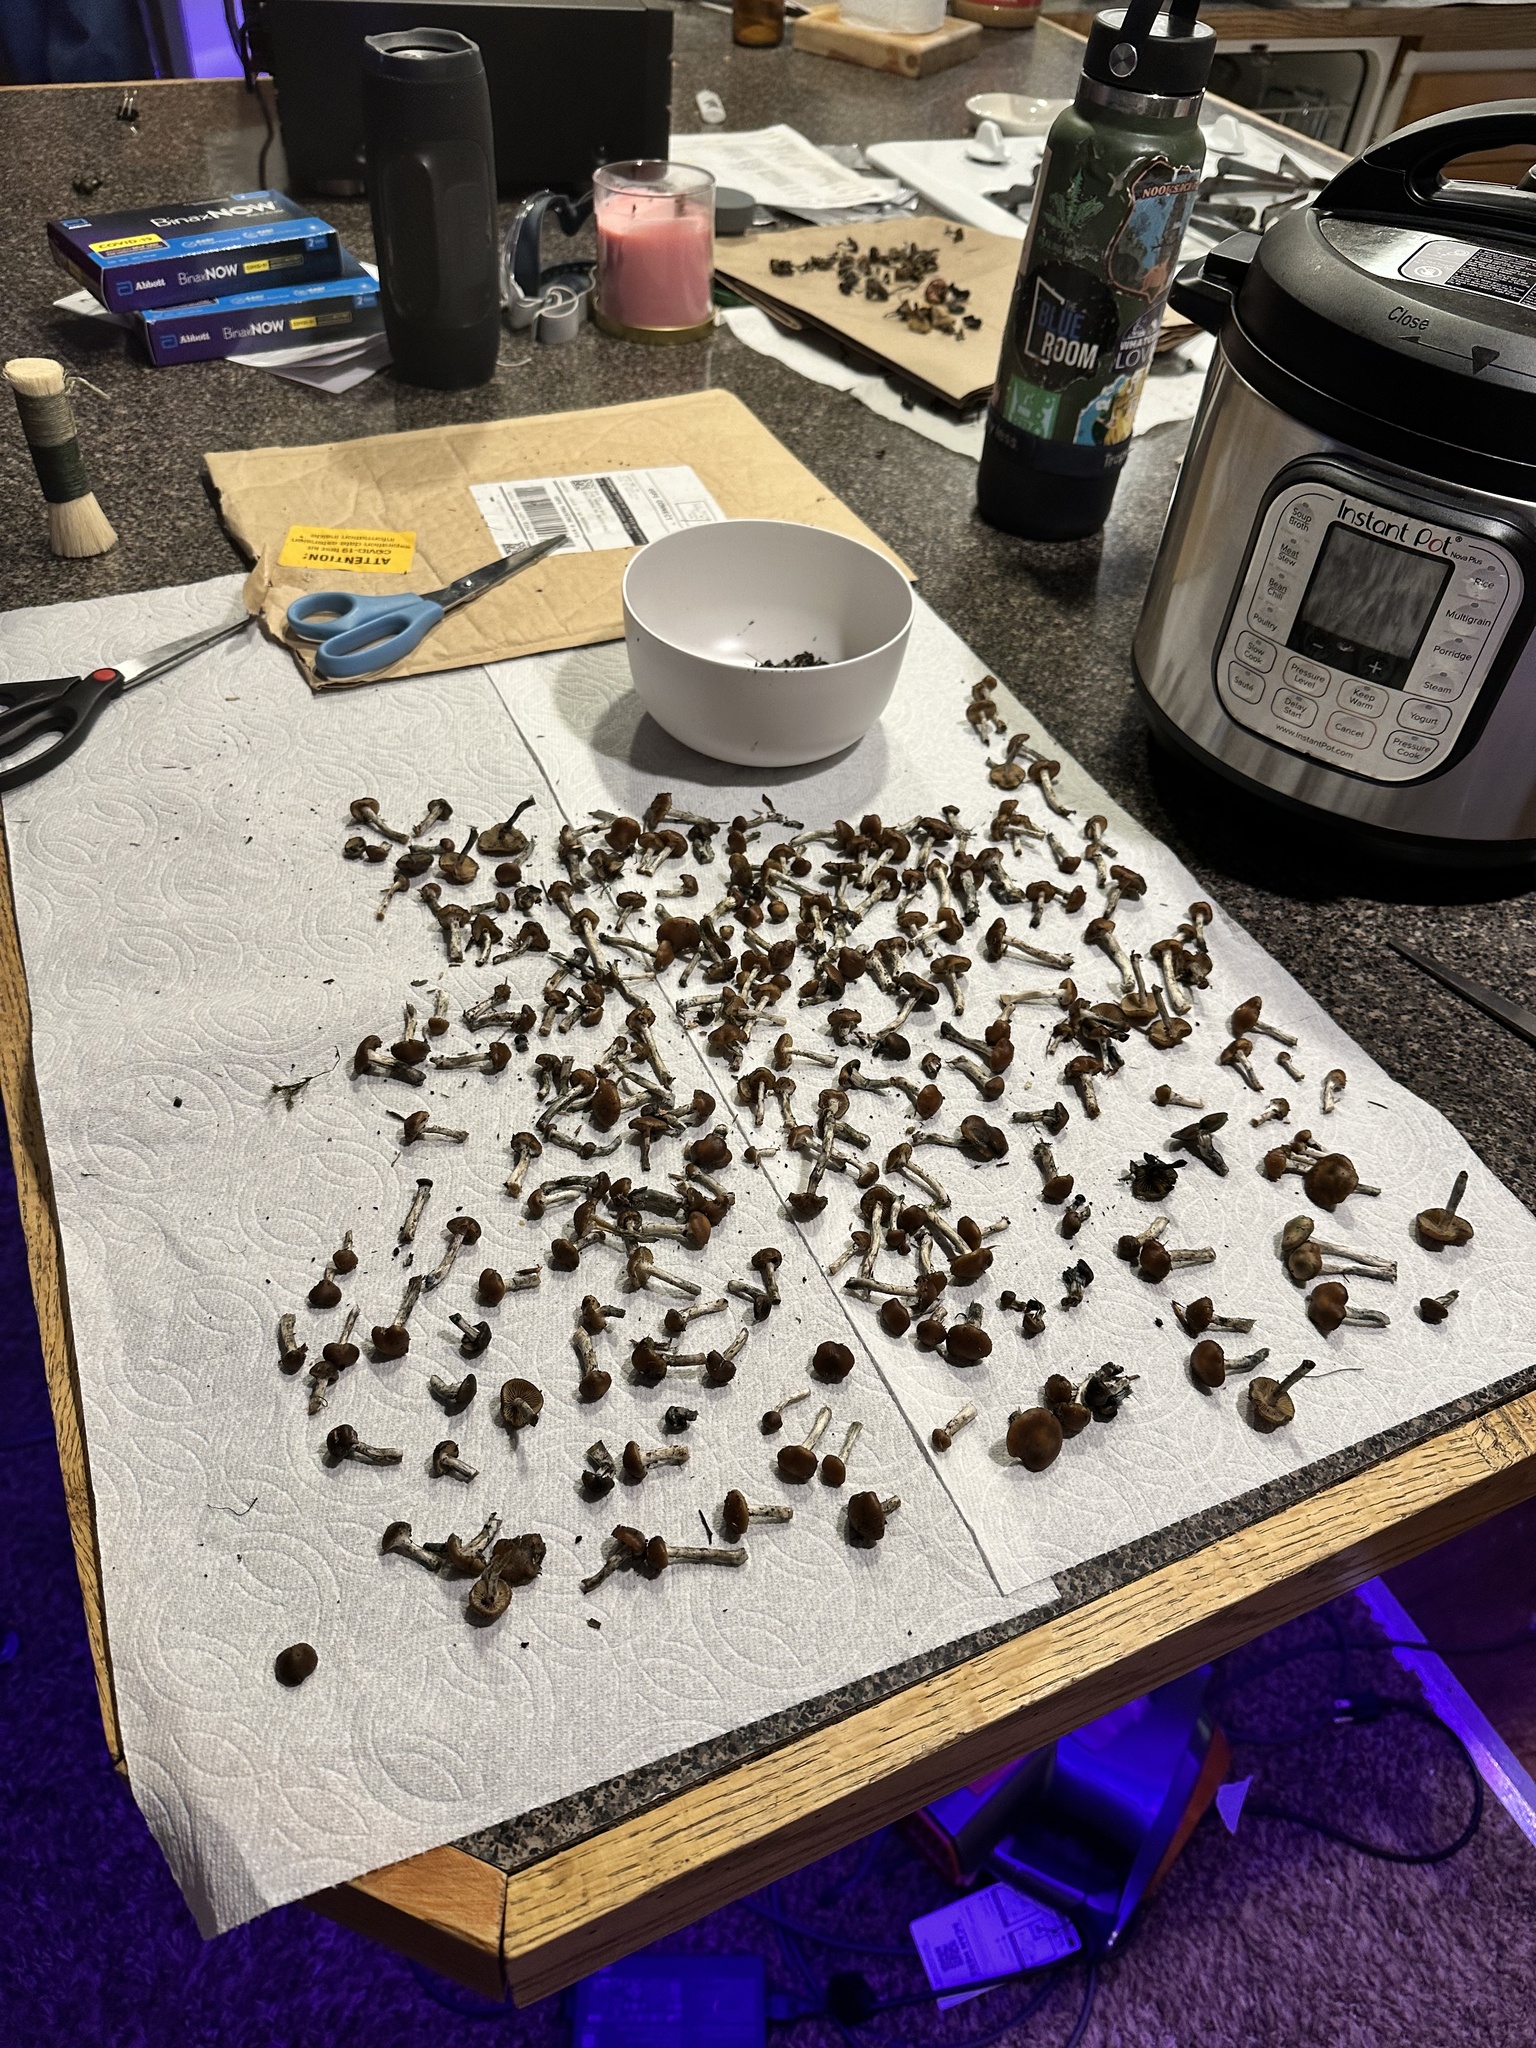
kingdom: Fungi
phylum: Basidiomycota
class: Agaricomycetes
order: Agaricales
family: Hymenogastraceae
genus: Psilocybe
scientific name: Psilocybe cyanescens
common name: Blueleg brownie
